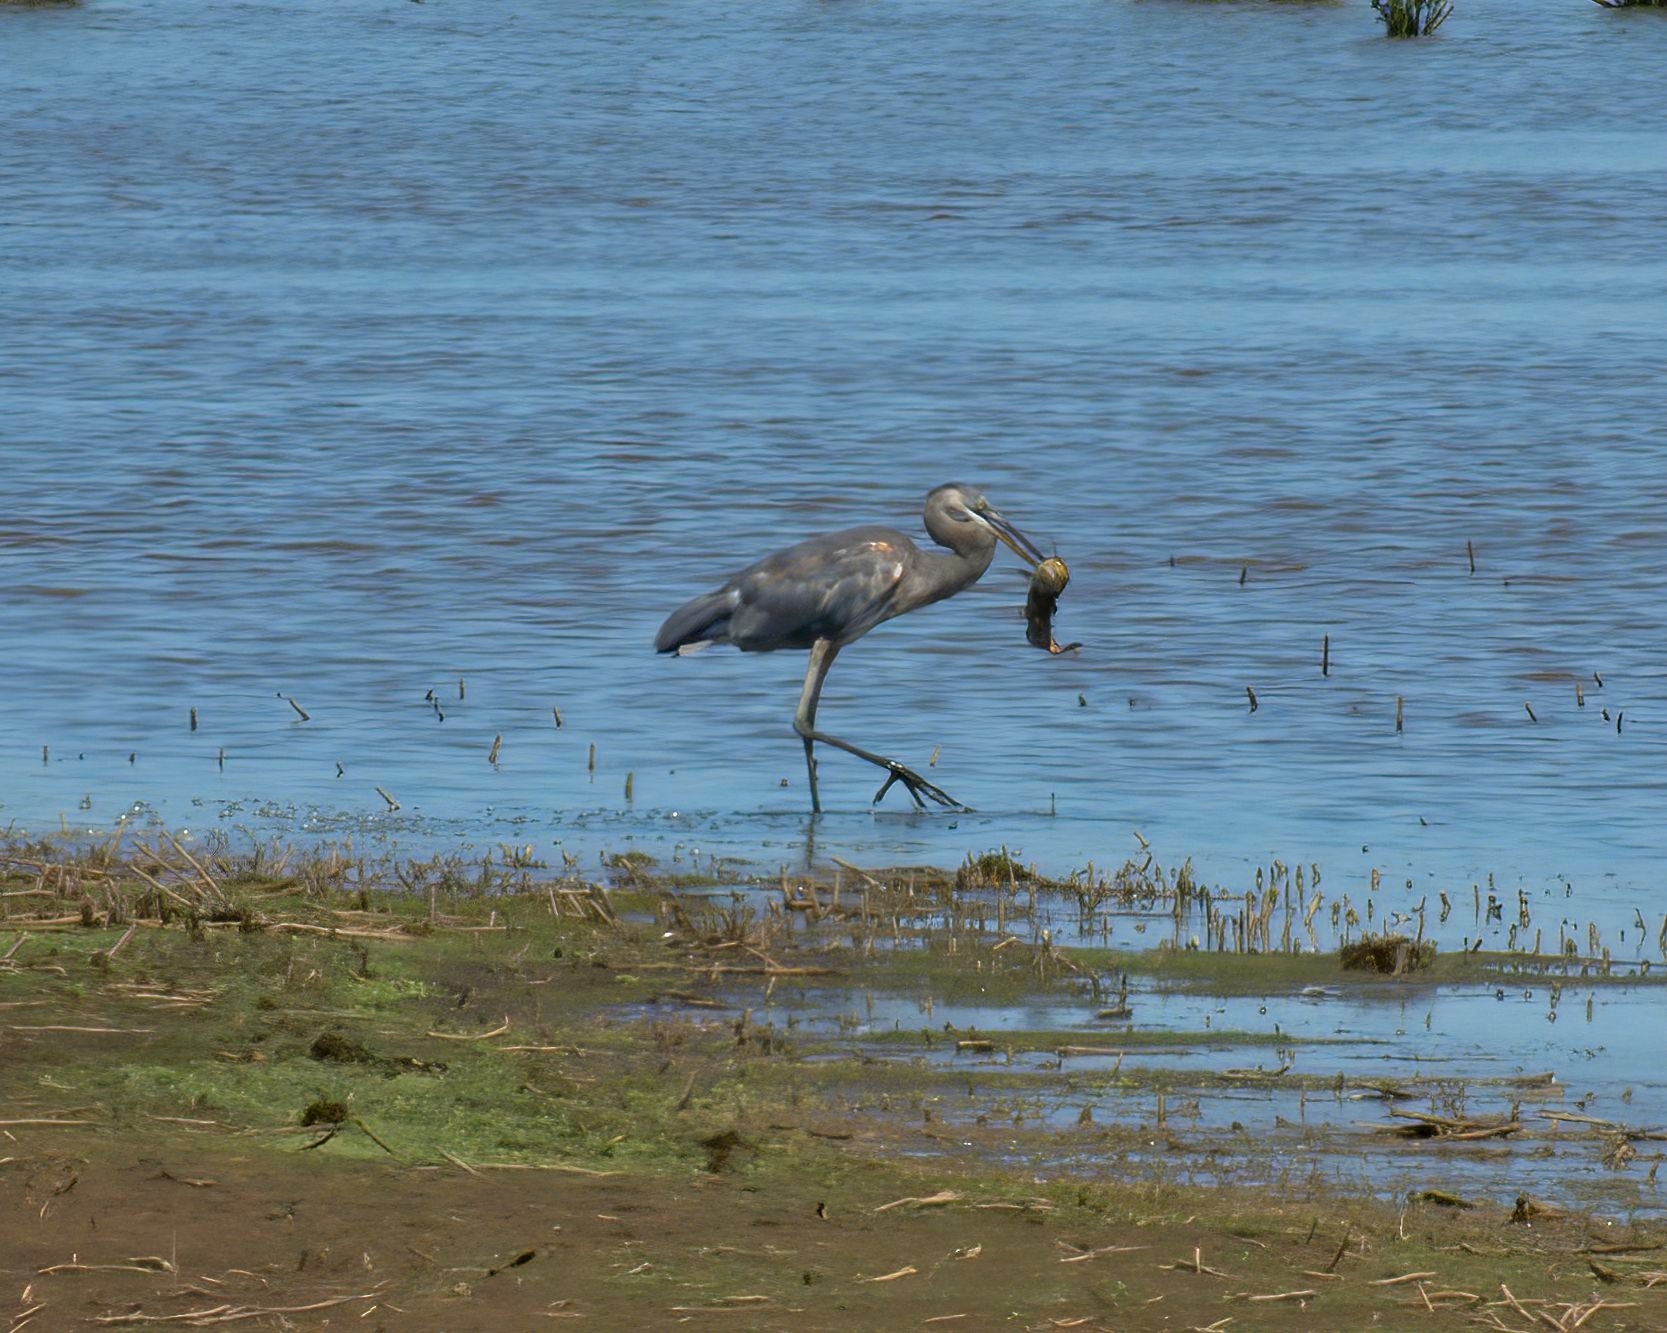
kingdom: Animalia
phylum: Chordata
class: Aves
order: Pelecaniformes
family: Ardeidae
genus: Ardea
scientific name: Ardea herodias
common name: Great blue heron
